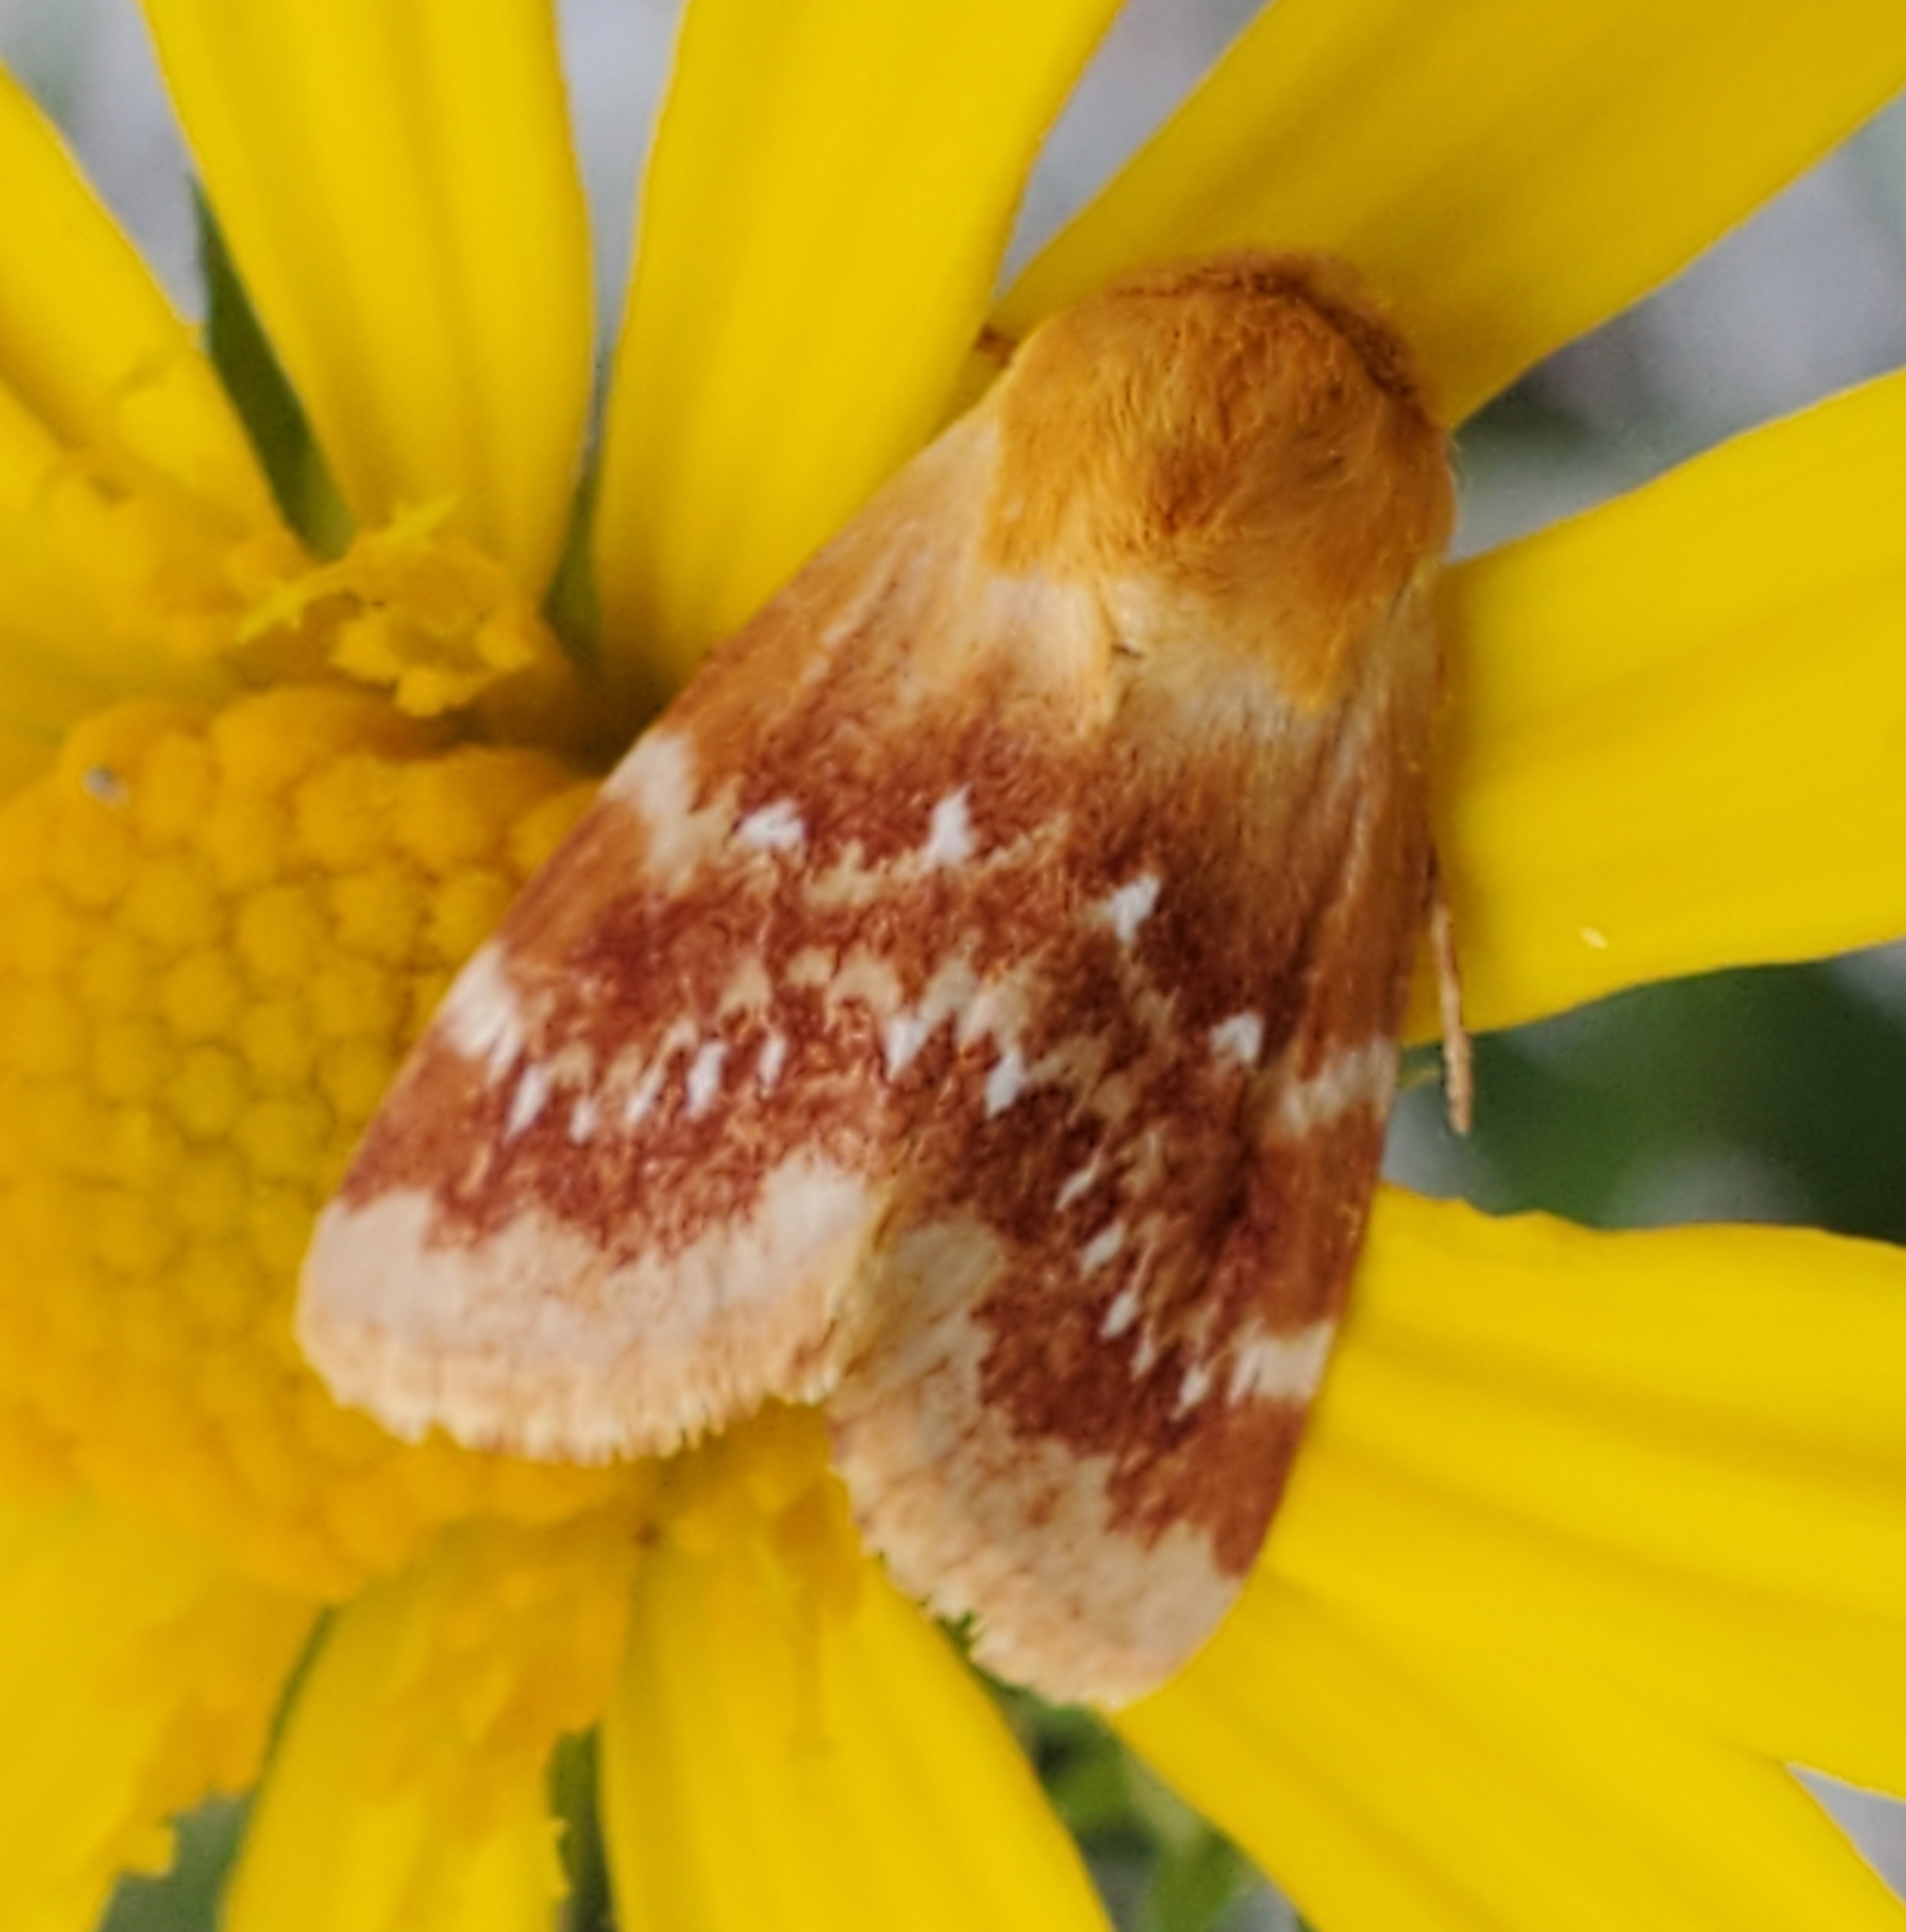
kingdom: Animalia
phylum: Arthropoda
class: Insecta
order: Lepidoptera
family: Noctuidae
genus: Schinia
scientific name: Schinia fulleri
